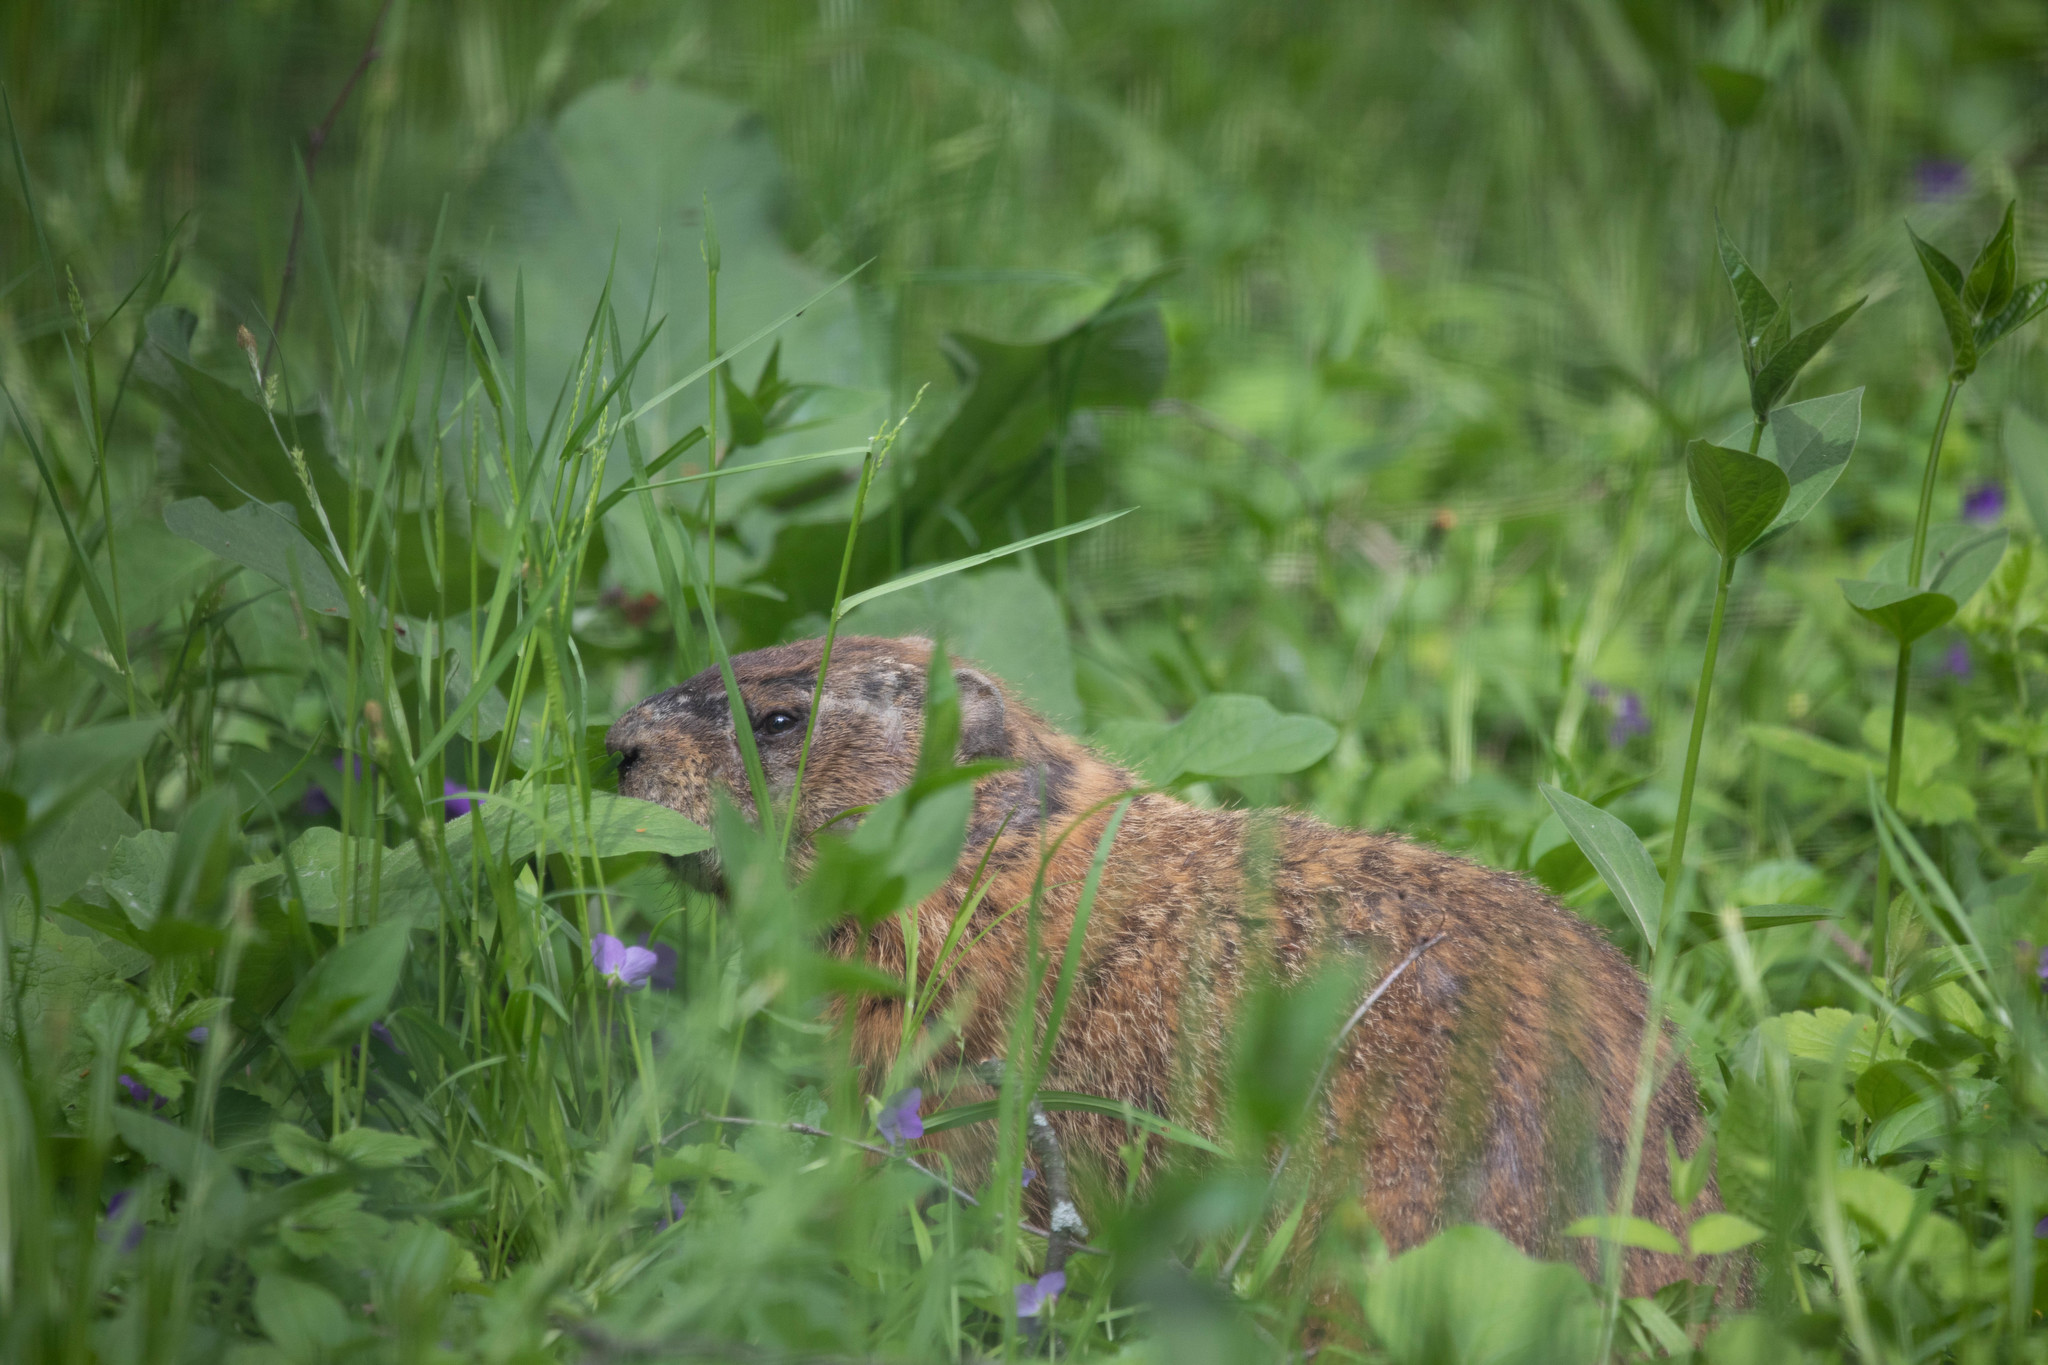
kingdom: Animalia
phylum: Chordata
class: Mammalia
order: Rodentia
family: Sciuridae
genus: Marmota
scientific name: Marmota monax
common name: Groundhog
